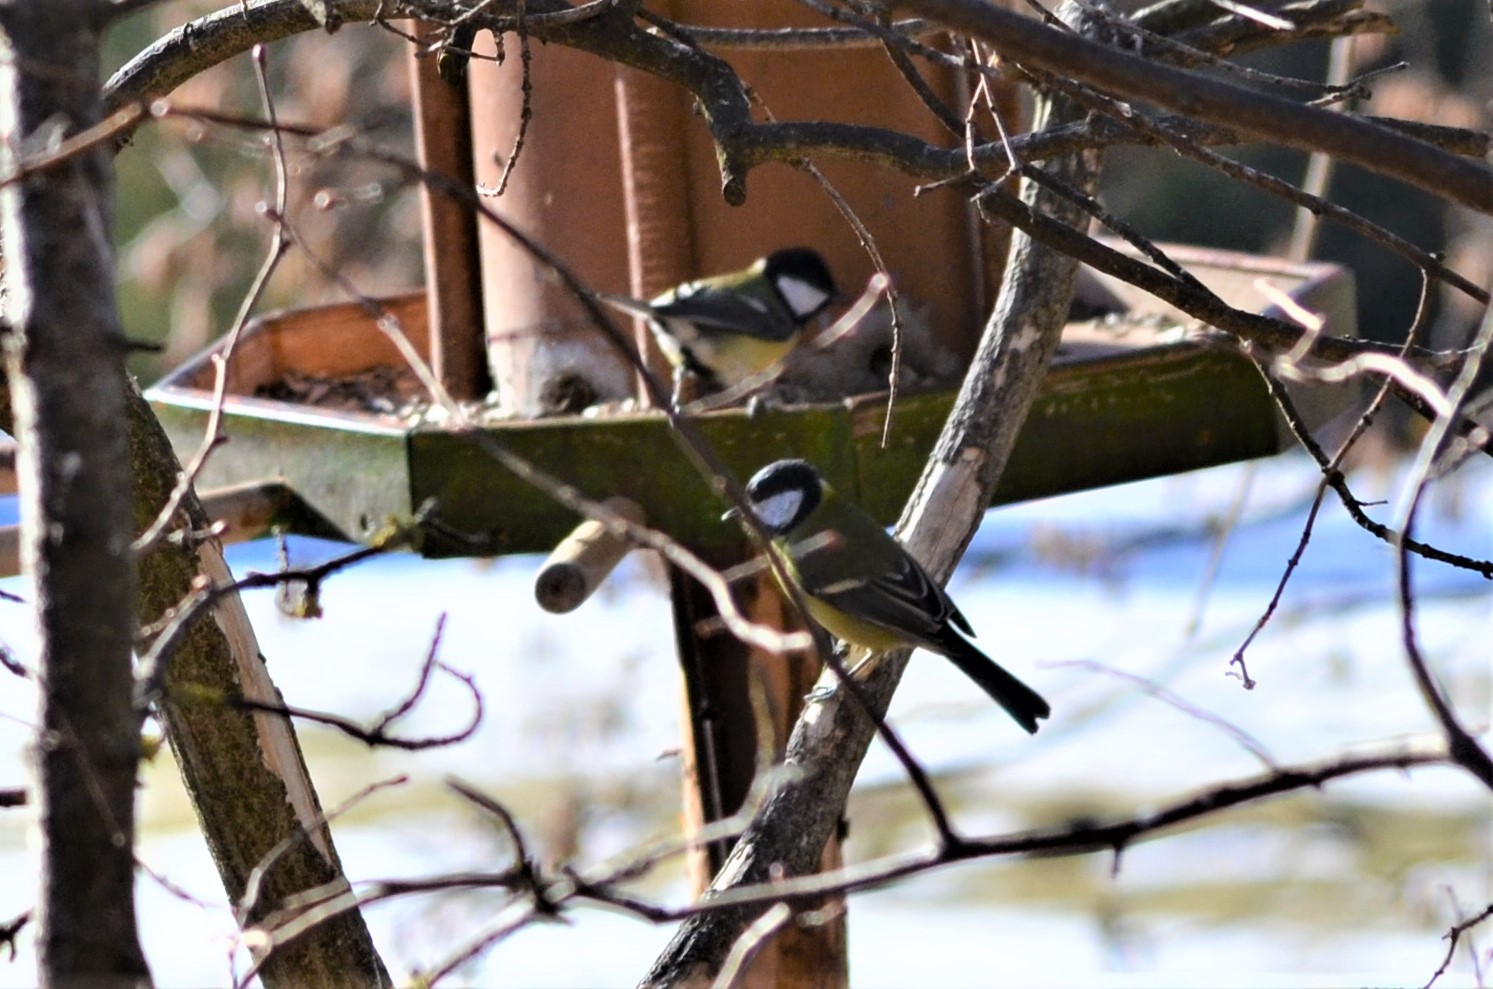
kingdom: Animalia
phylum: Chordata
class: Aves
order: Passeriformes
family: Paridae
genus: Parus
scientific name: Parus major
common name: Great tit
